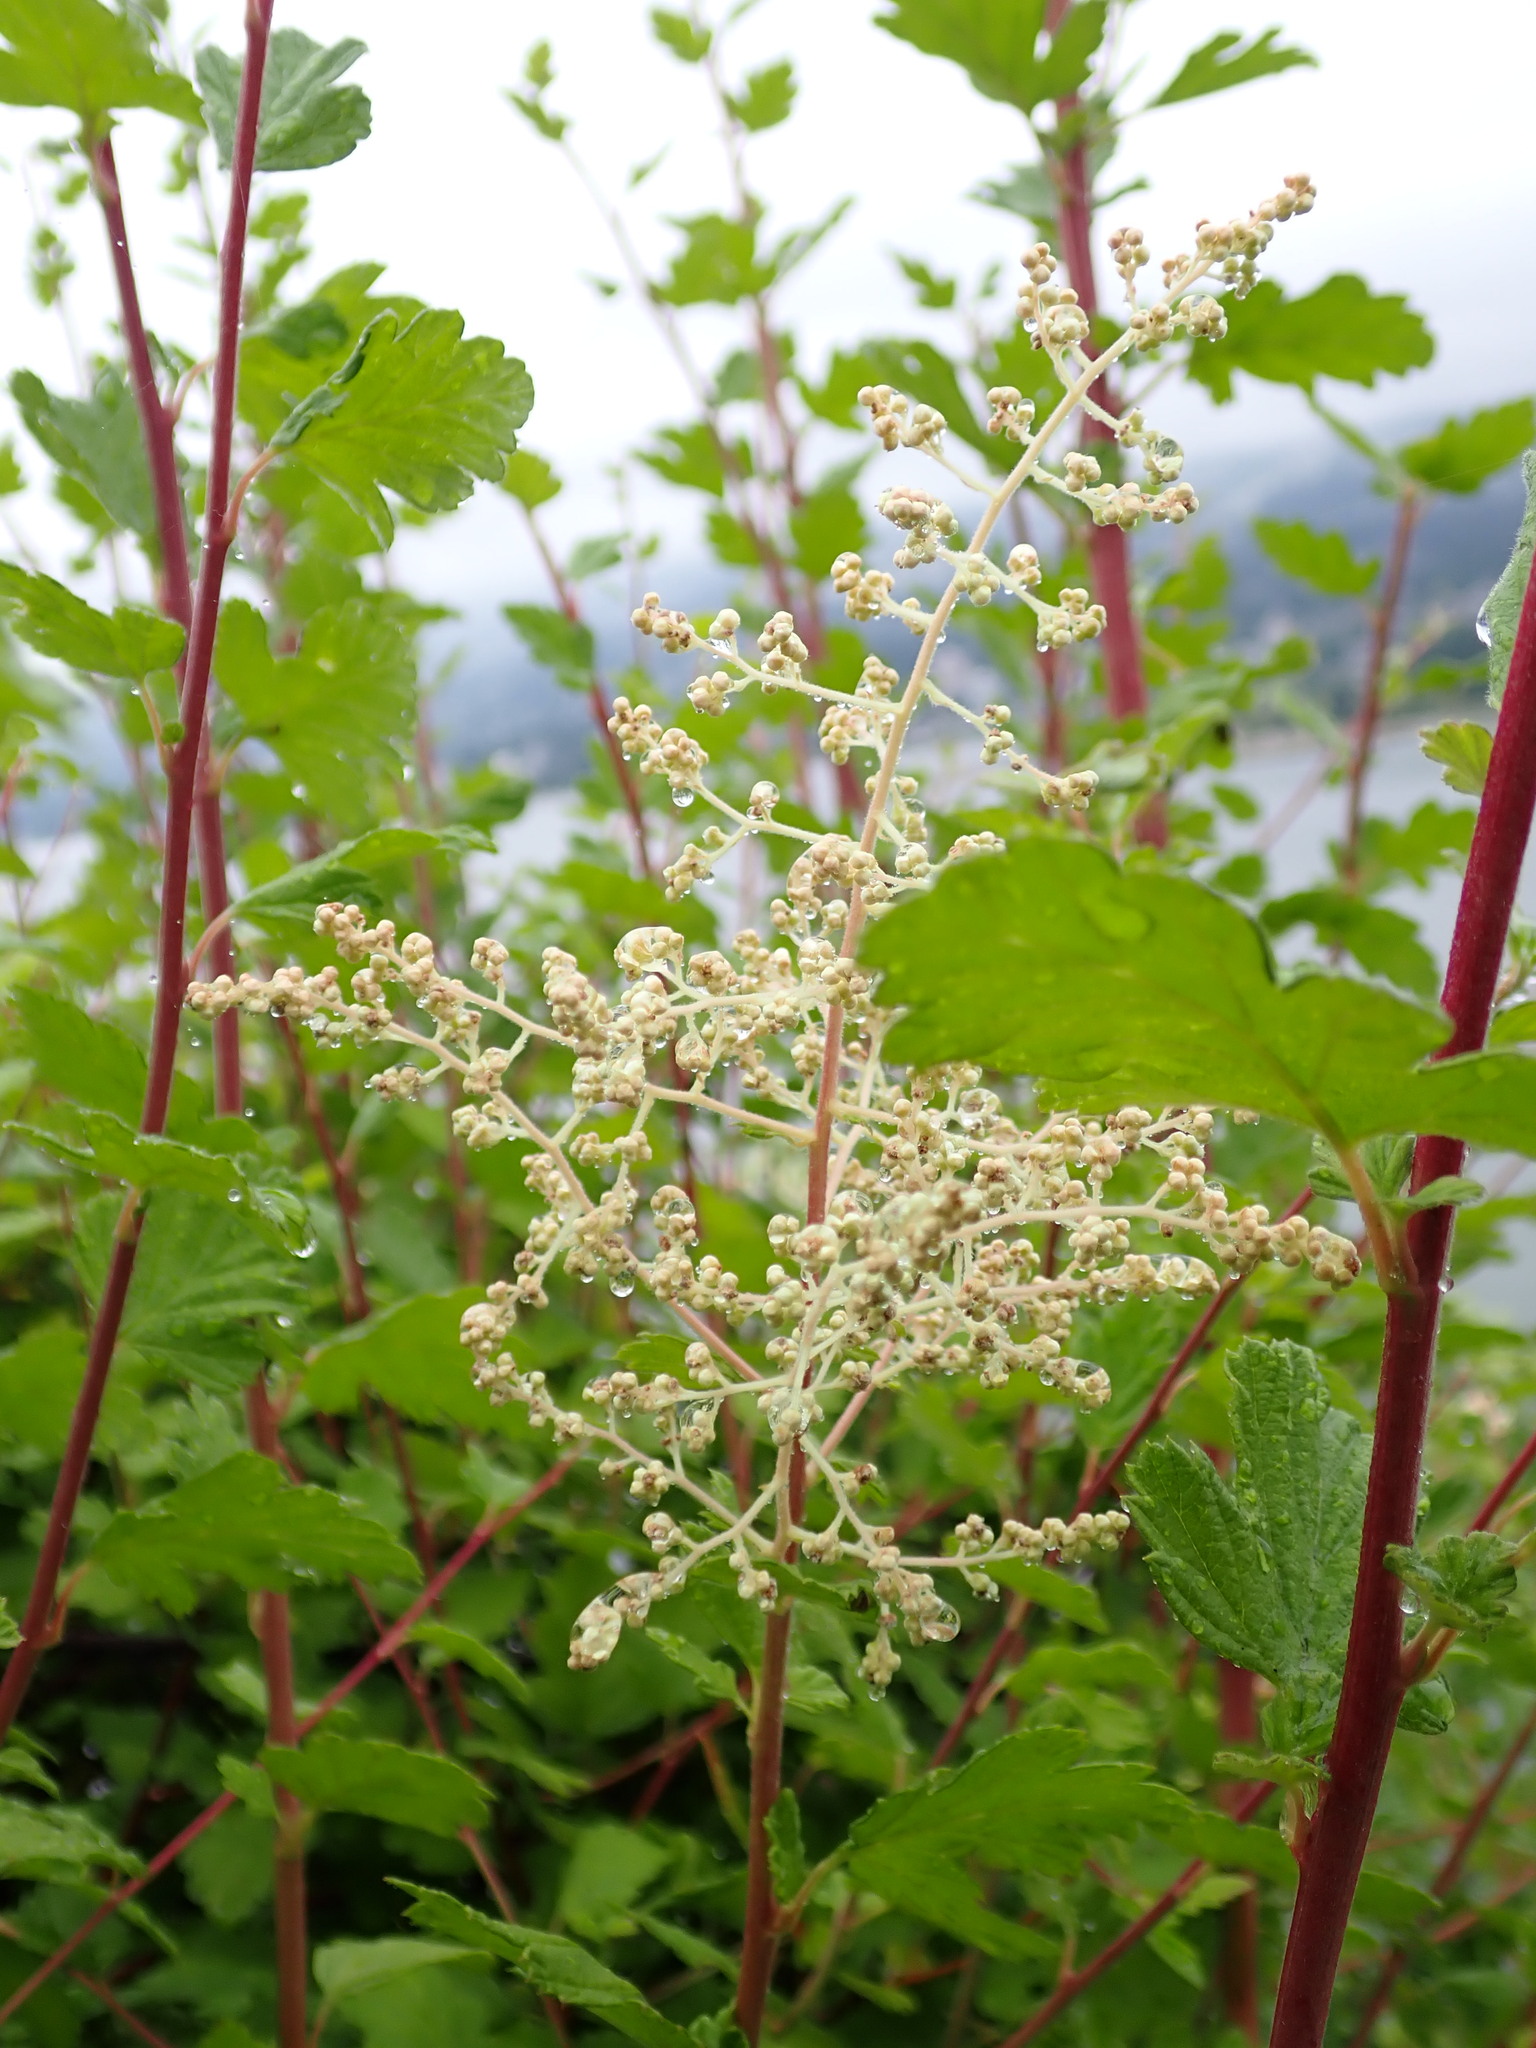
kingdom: Plantae
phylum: Tracheophyta
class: Magnoliopsida
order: Rosales
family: Rosaceae
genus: Holodiscus
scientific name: Holodiscus discolor
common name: Oceanspray
